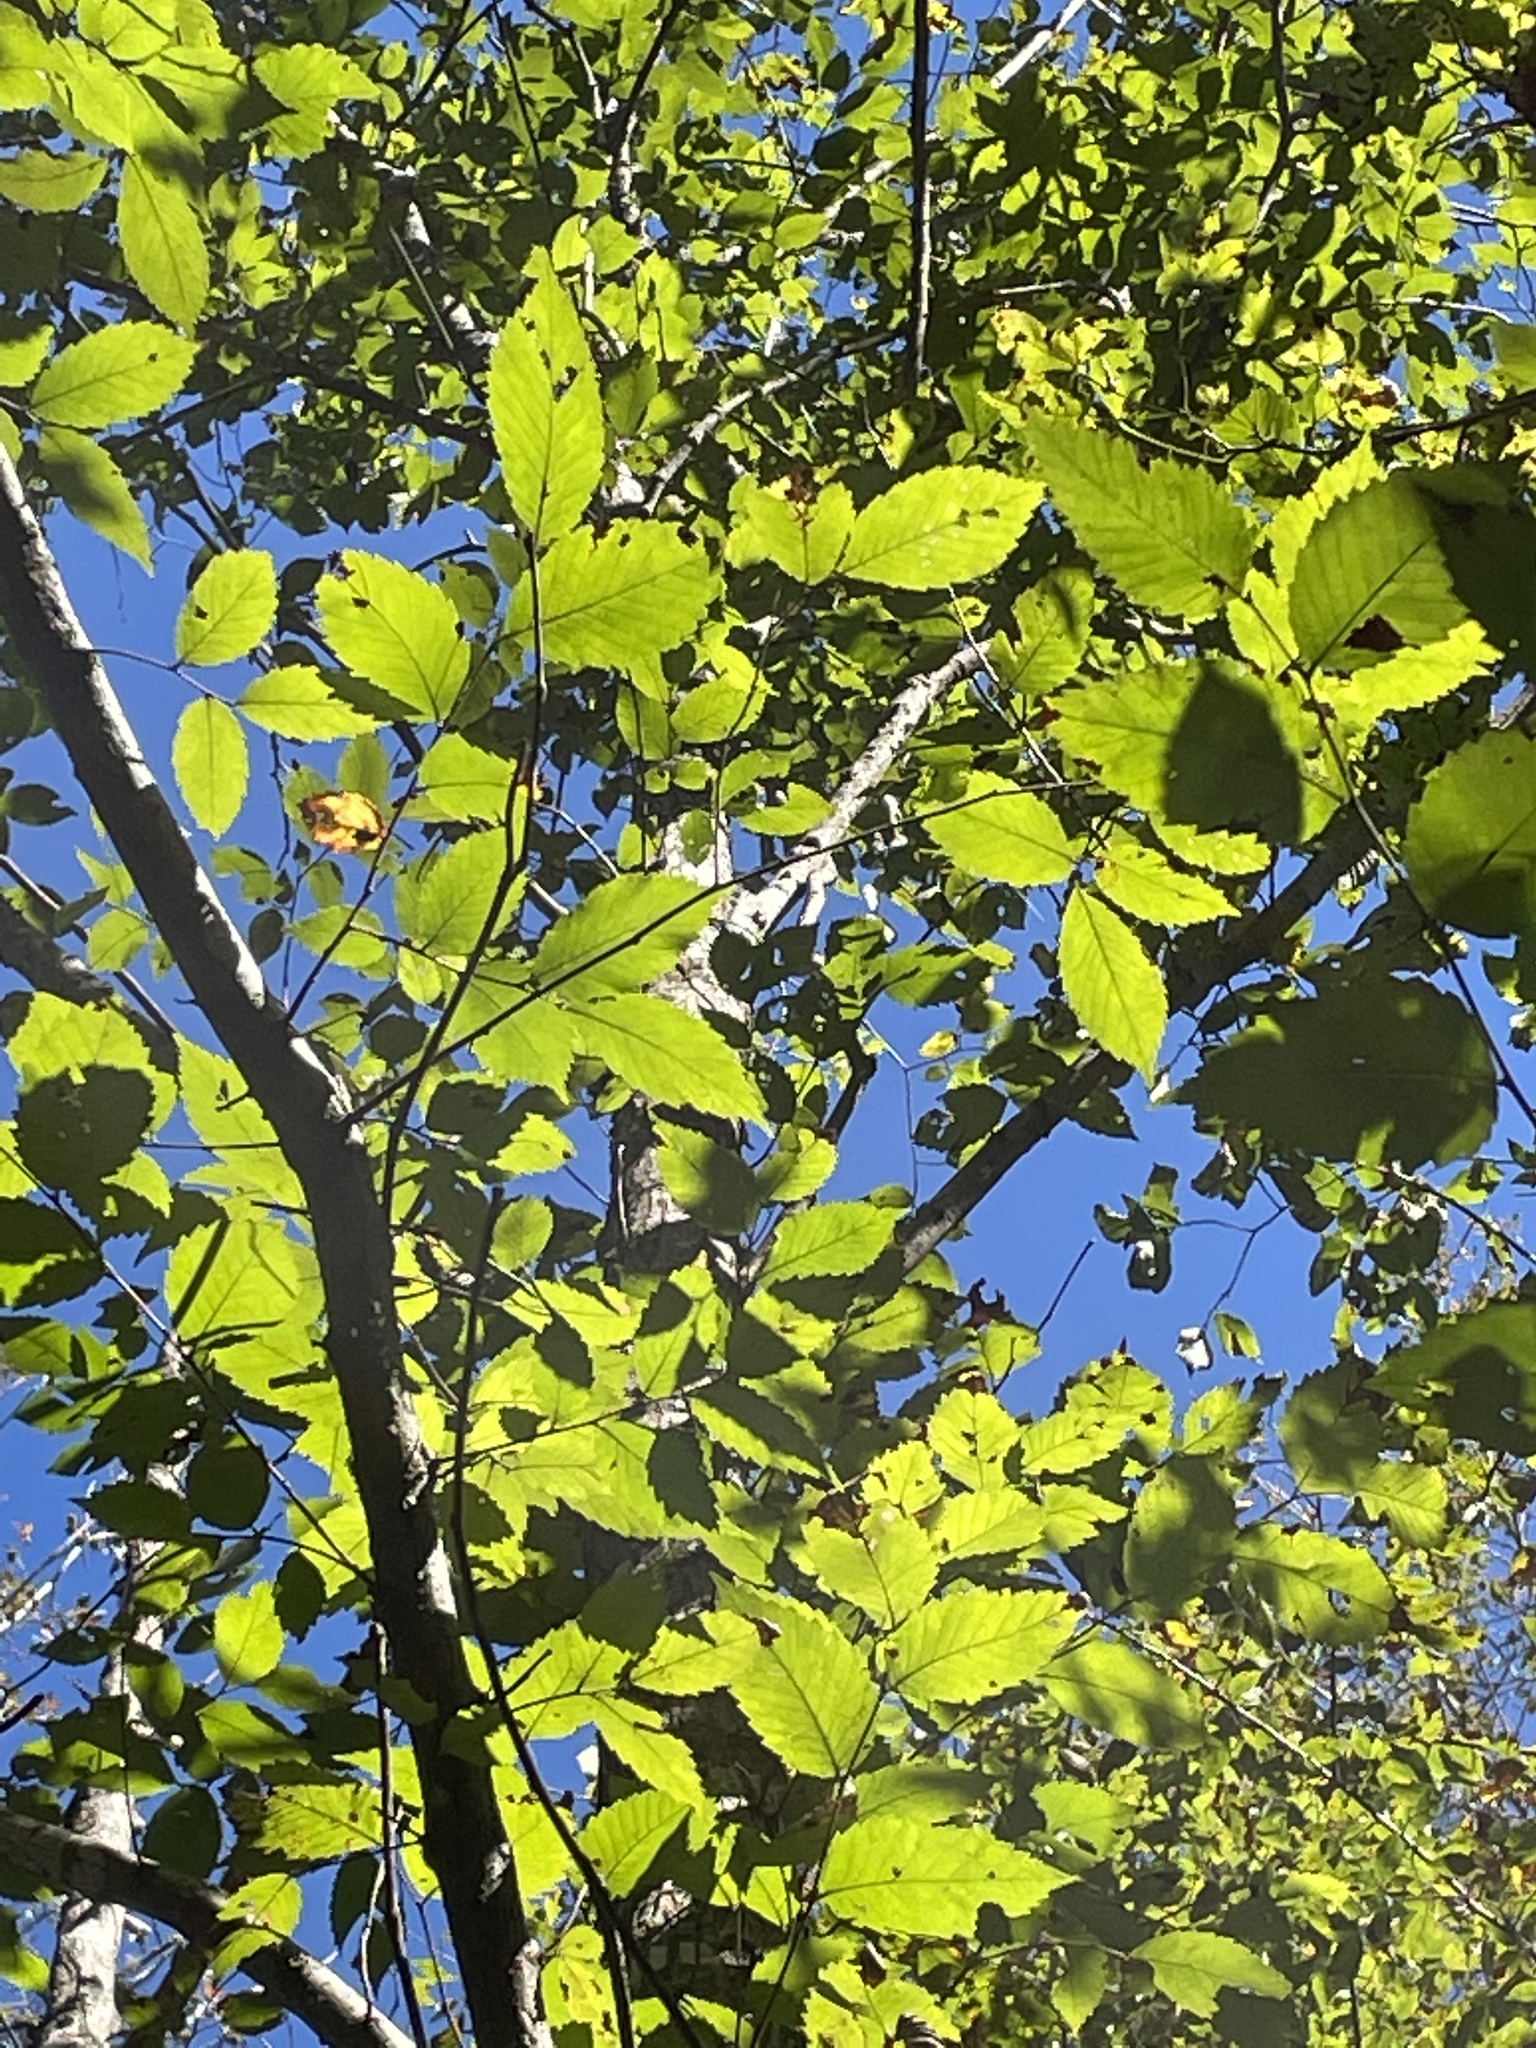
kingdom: Plantae
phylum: Tracheophyta
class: Magnoliopsida
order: Rosales
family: Ulmaceae
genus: Ulmus
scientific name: Ulmus americana
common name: American elm
